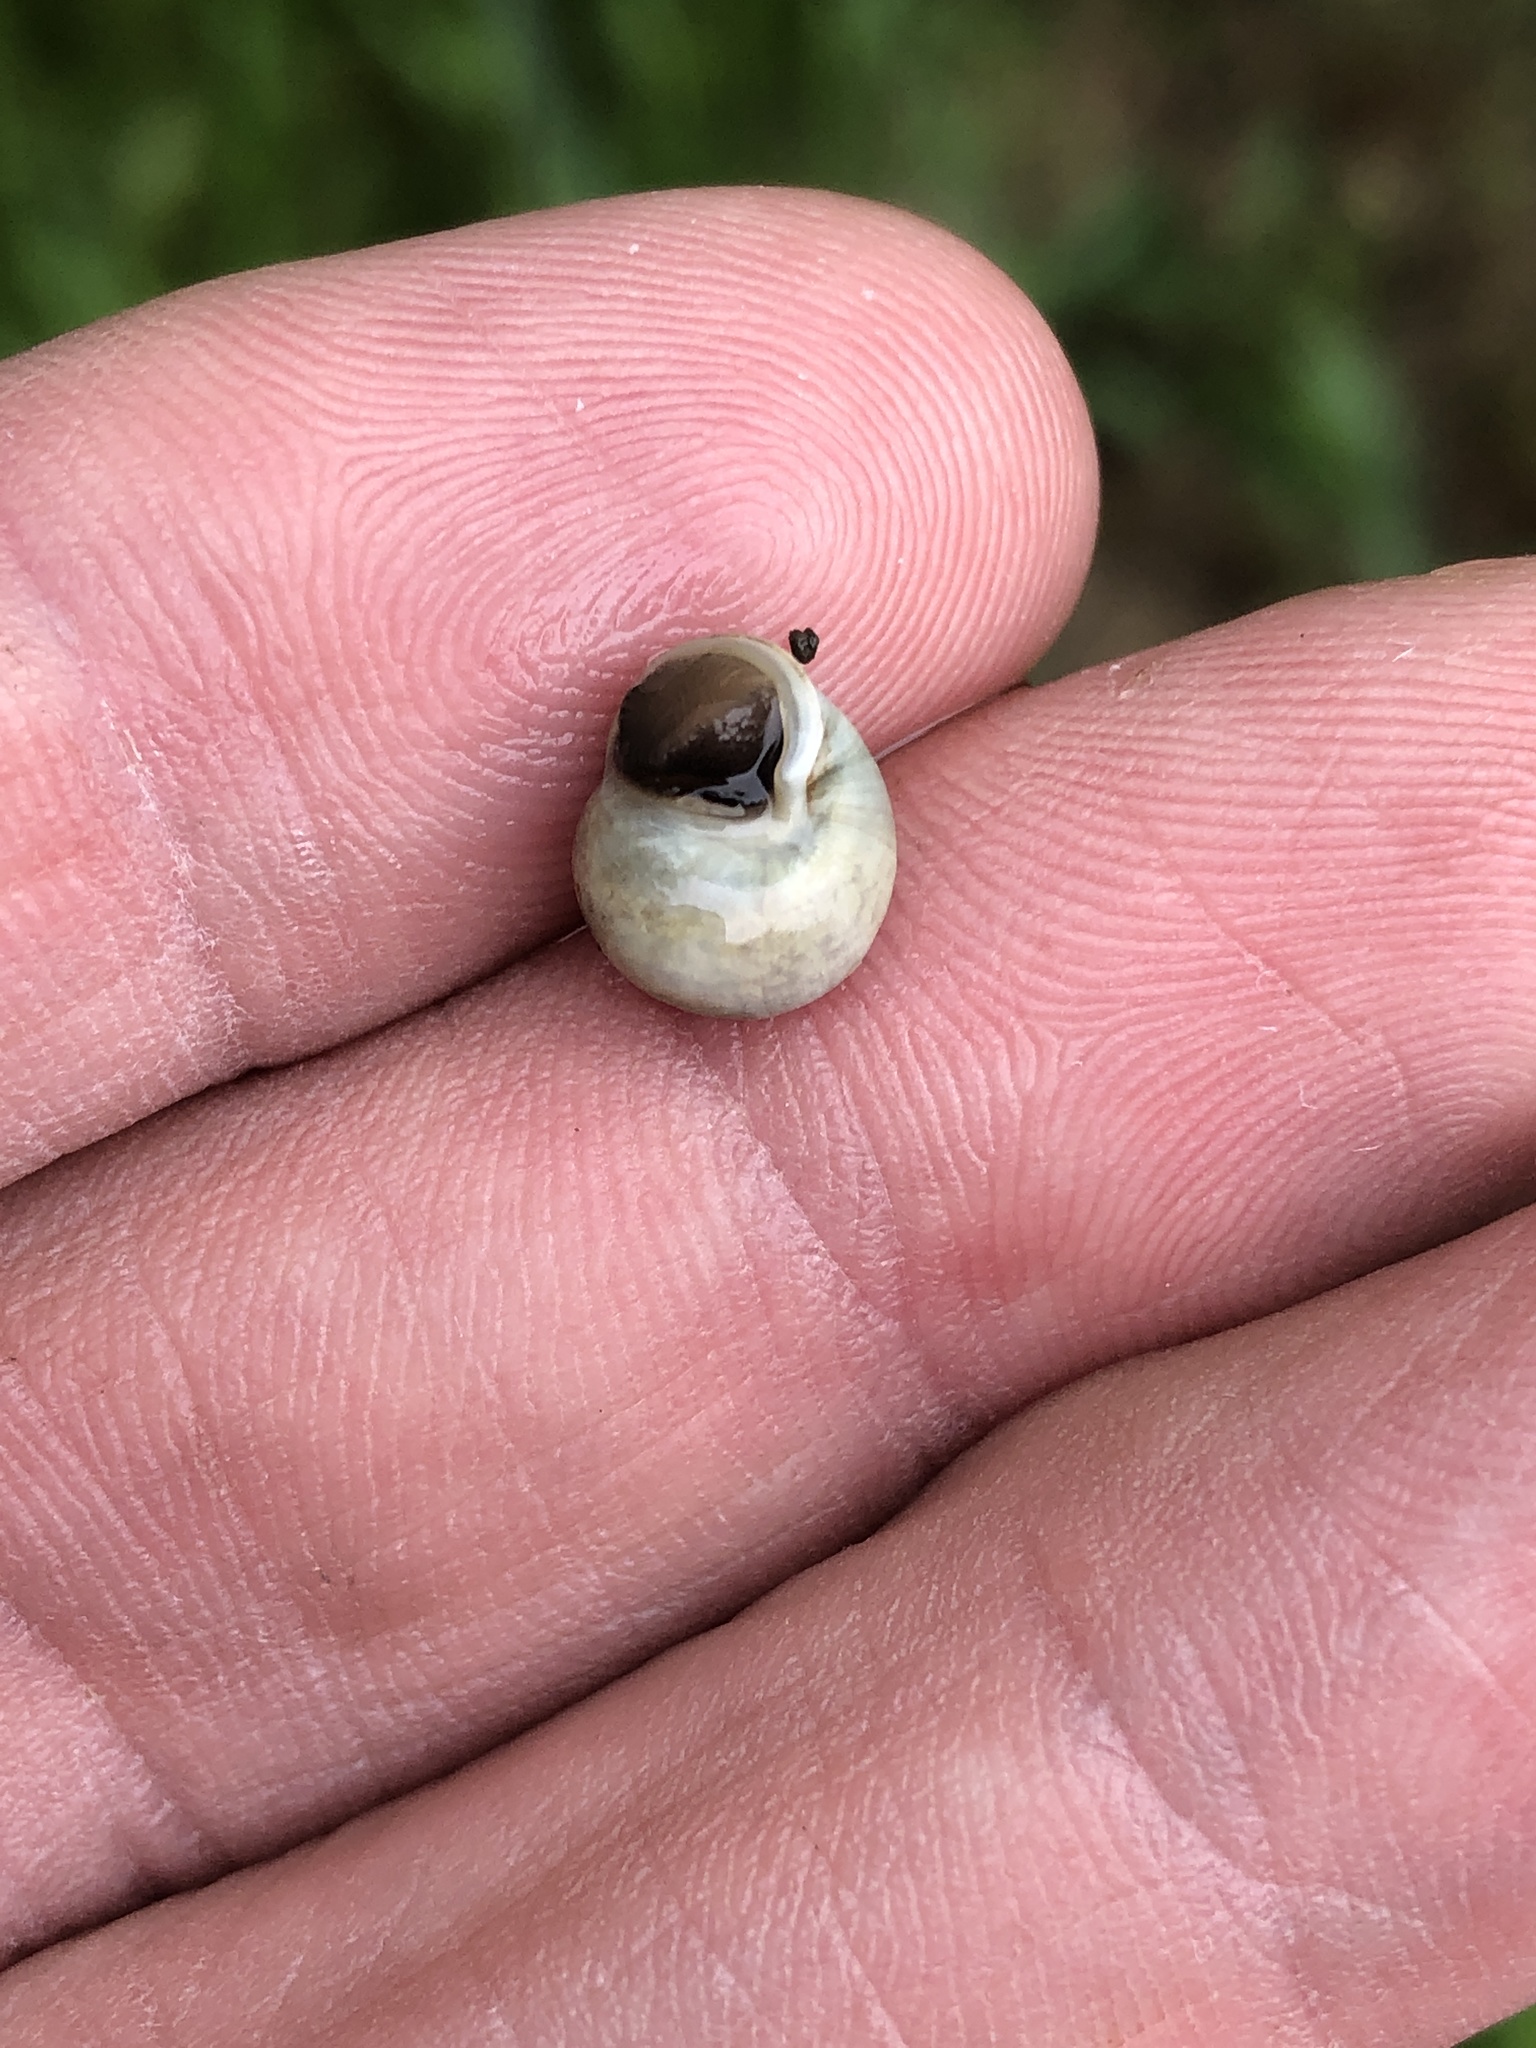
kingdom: Animalia
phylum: Mollusca
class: Gastropoda
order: Cycloneritida
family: Helicinidae
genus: Helicina
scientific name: Helicina orbiculata
